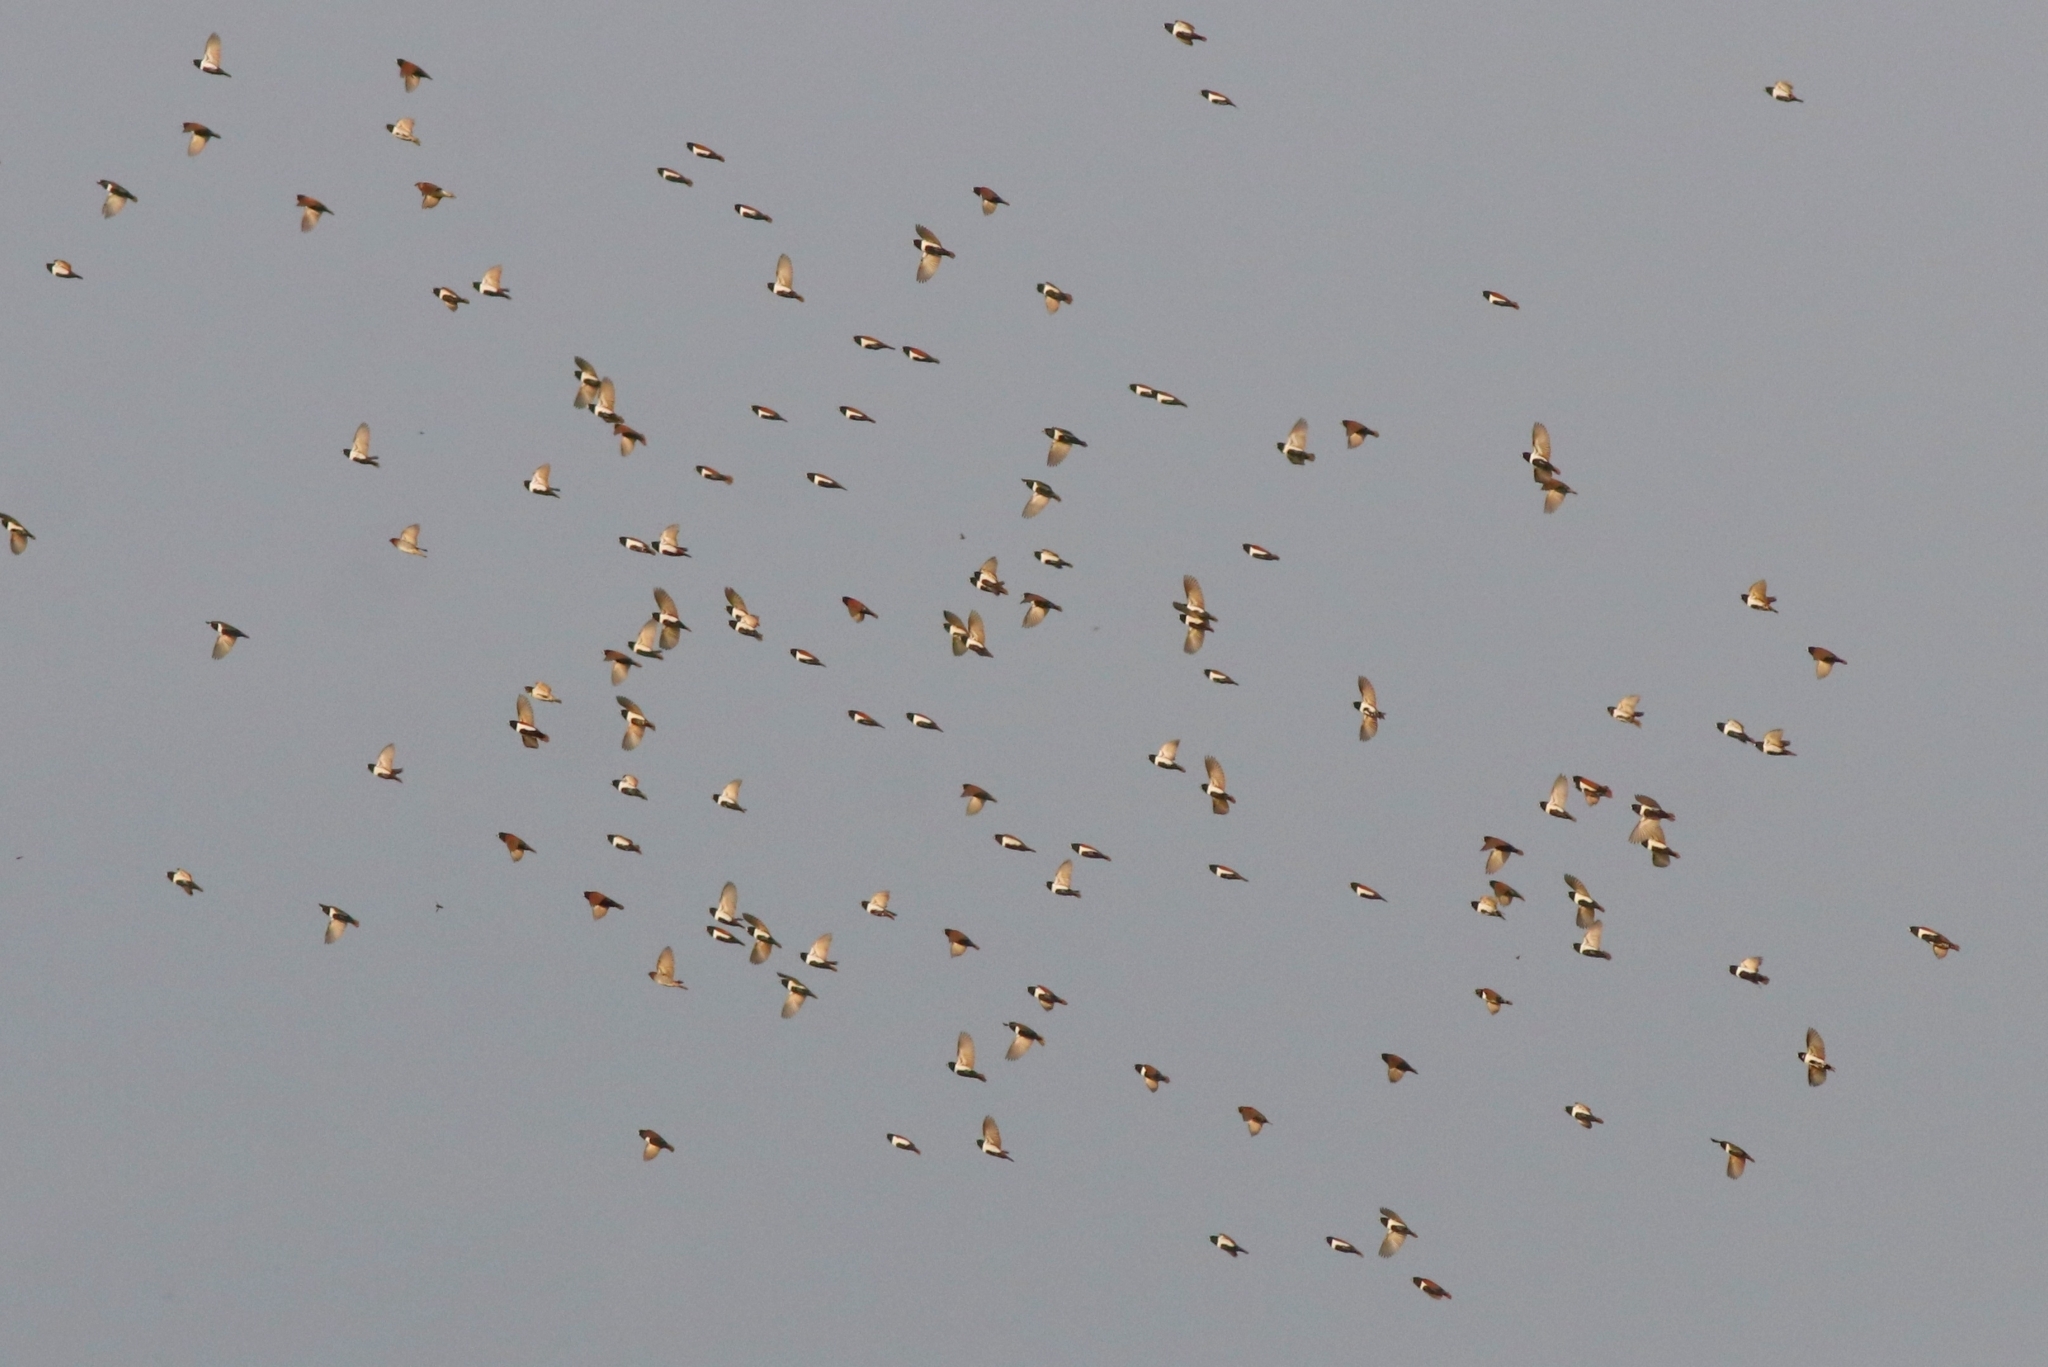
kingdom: Animalia
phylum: Chordata
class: Aves
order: Passeriformes
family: Estrildidae
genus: Lonchura
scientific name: Lonchura malacca
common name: Tricolored munia
